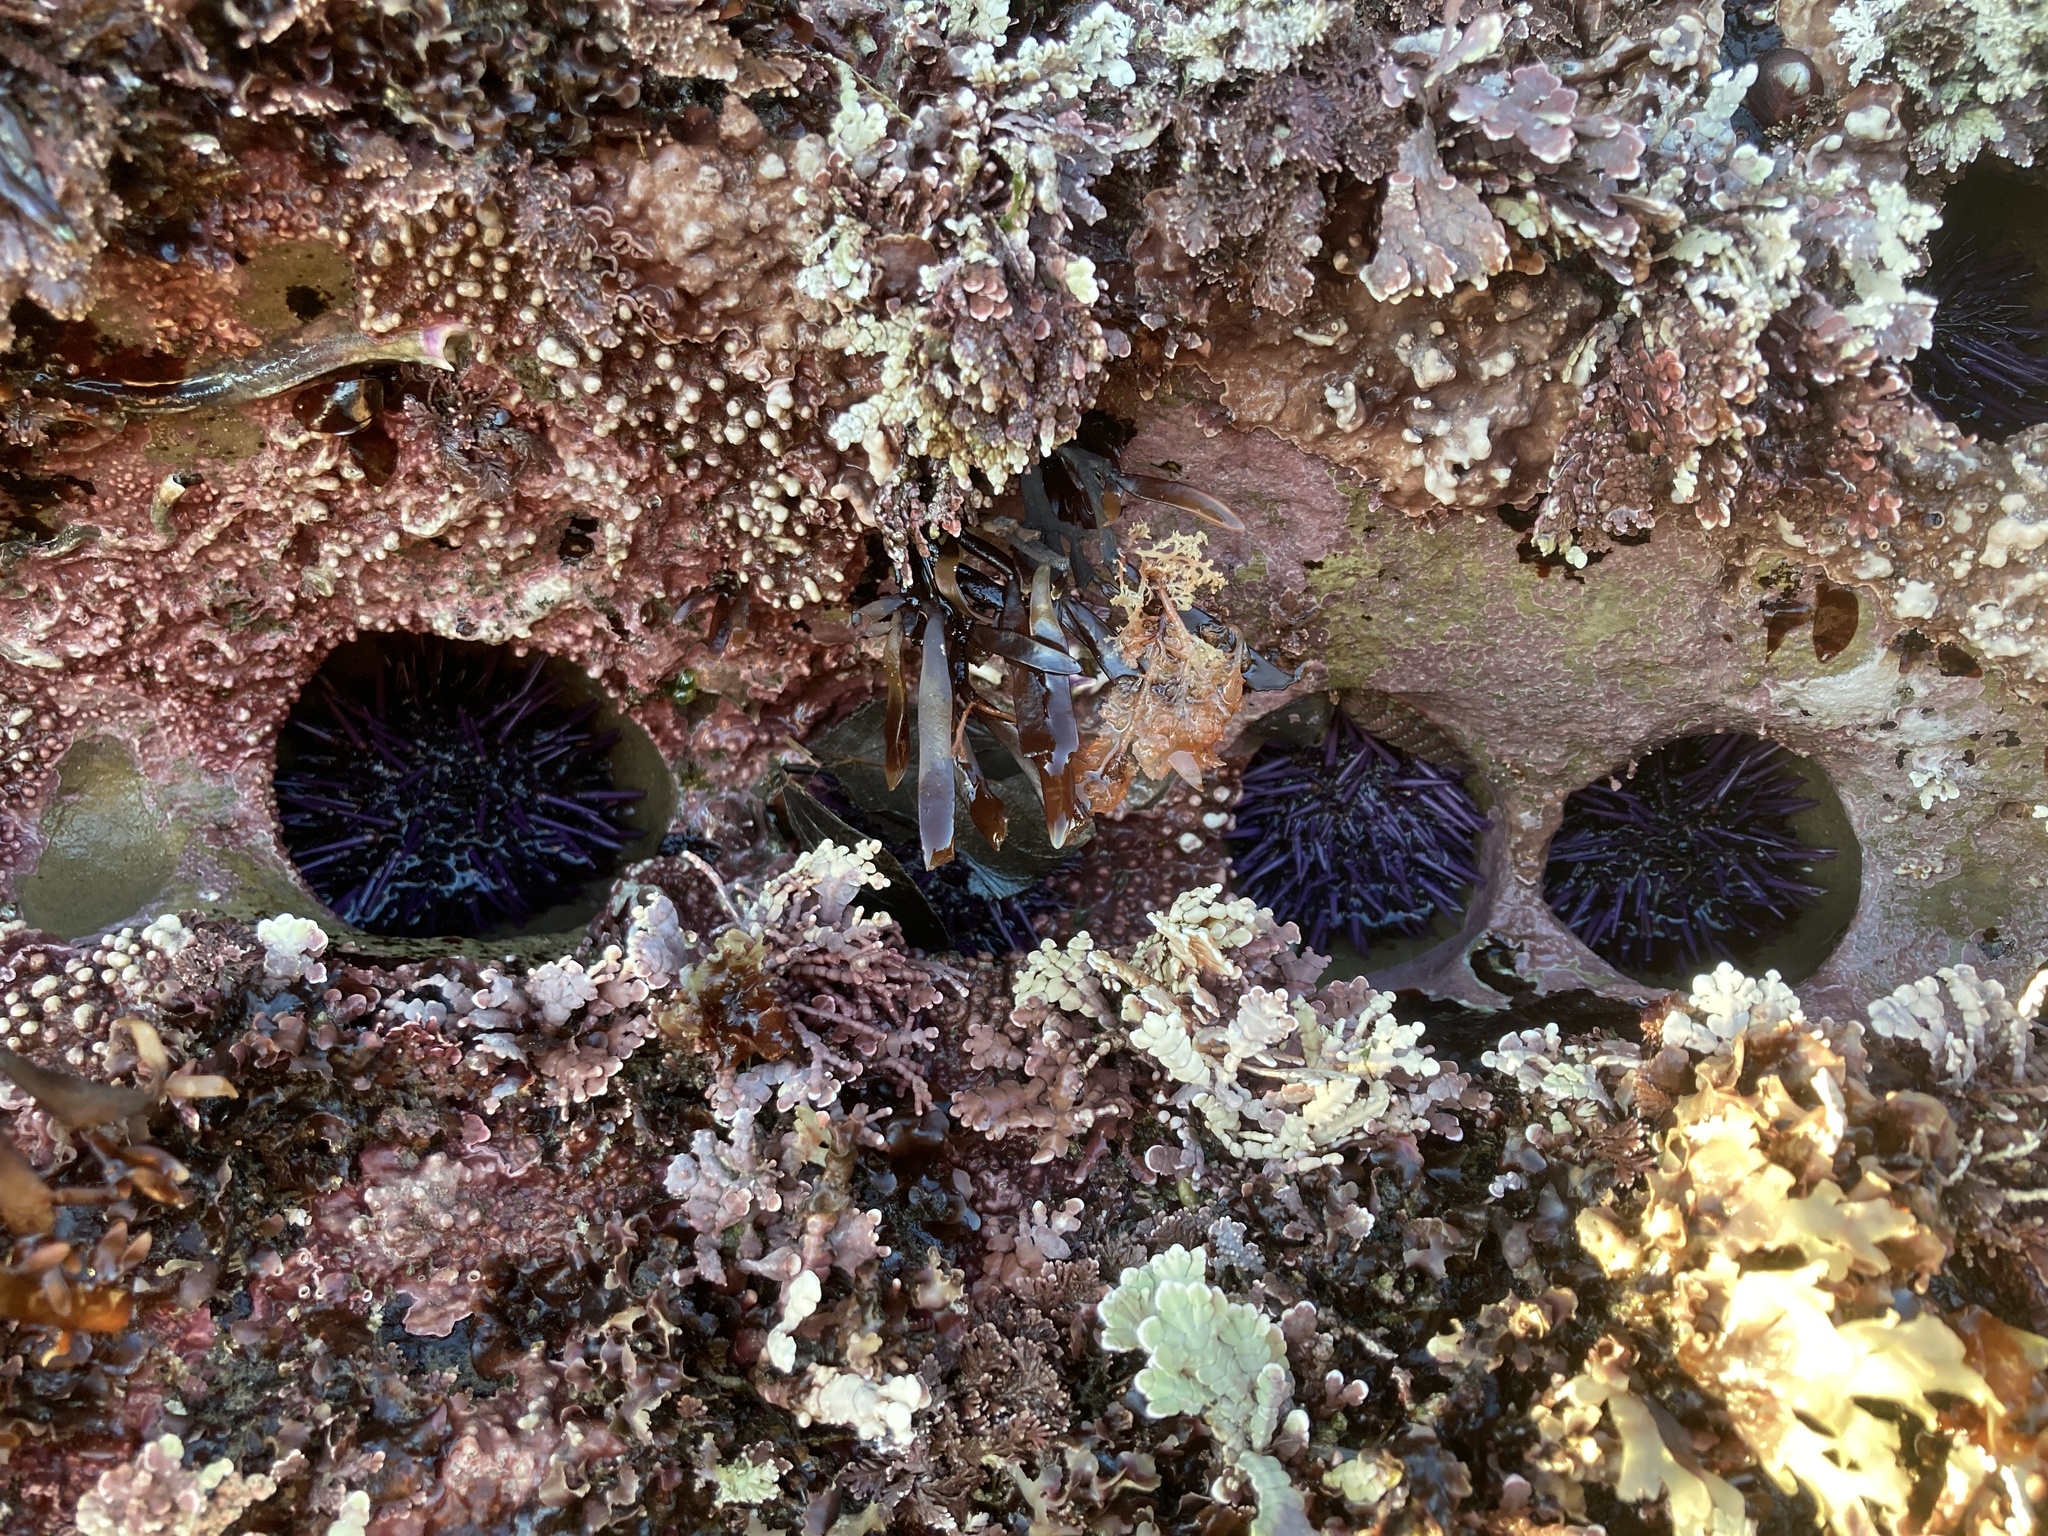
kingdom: Animalia
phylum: Echinodermata
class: Echinoidea
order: Camarodonta
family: Strongylocentrotidae
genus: Strongylocentrotus
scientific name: Strongylocentrotus purpuratus
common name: Purple sea urchin
